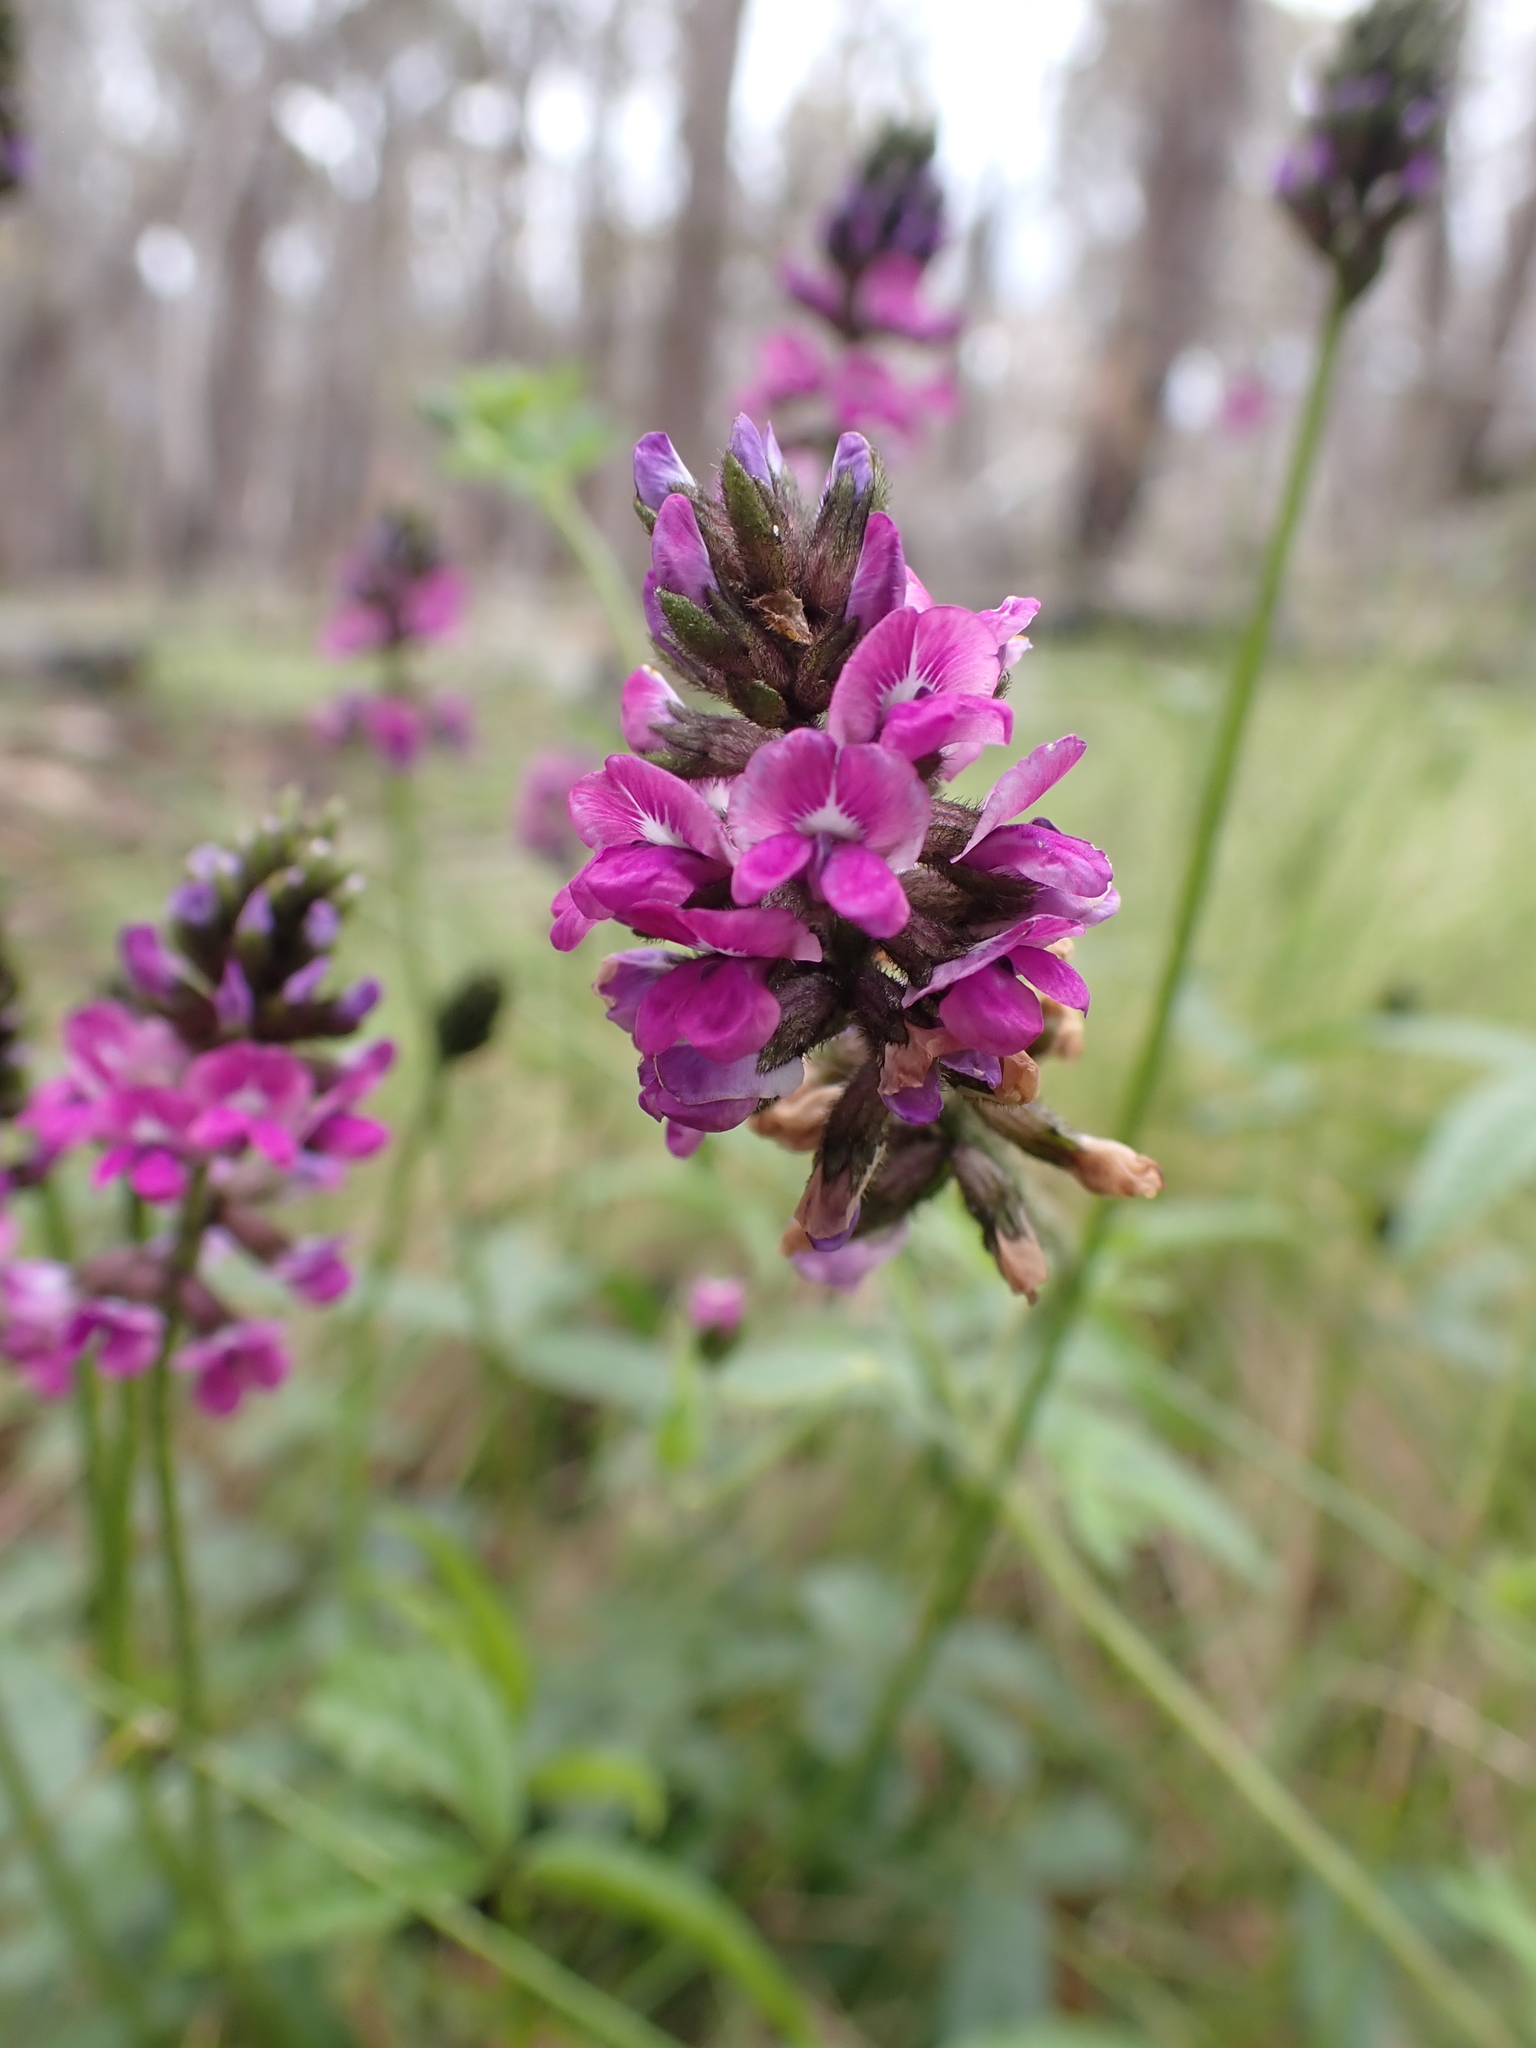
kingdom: Plantae
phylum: Tracheophyta
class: Magnoliopsida
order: Fabales
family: Fabaceae
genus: Cullen
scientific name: Cullen microcephalum
